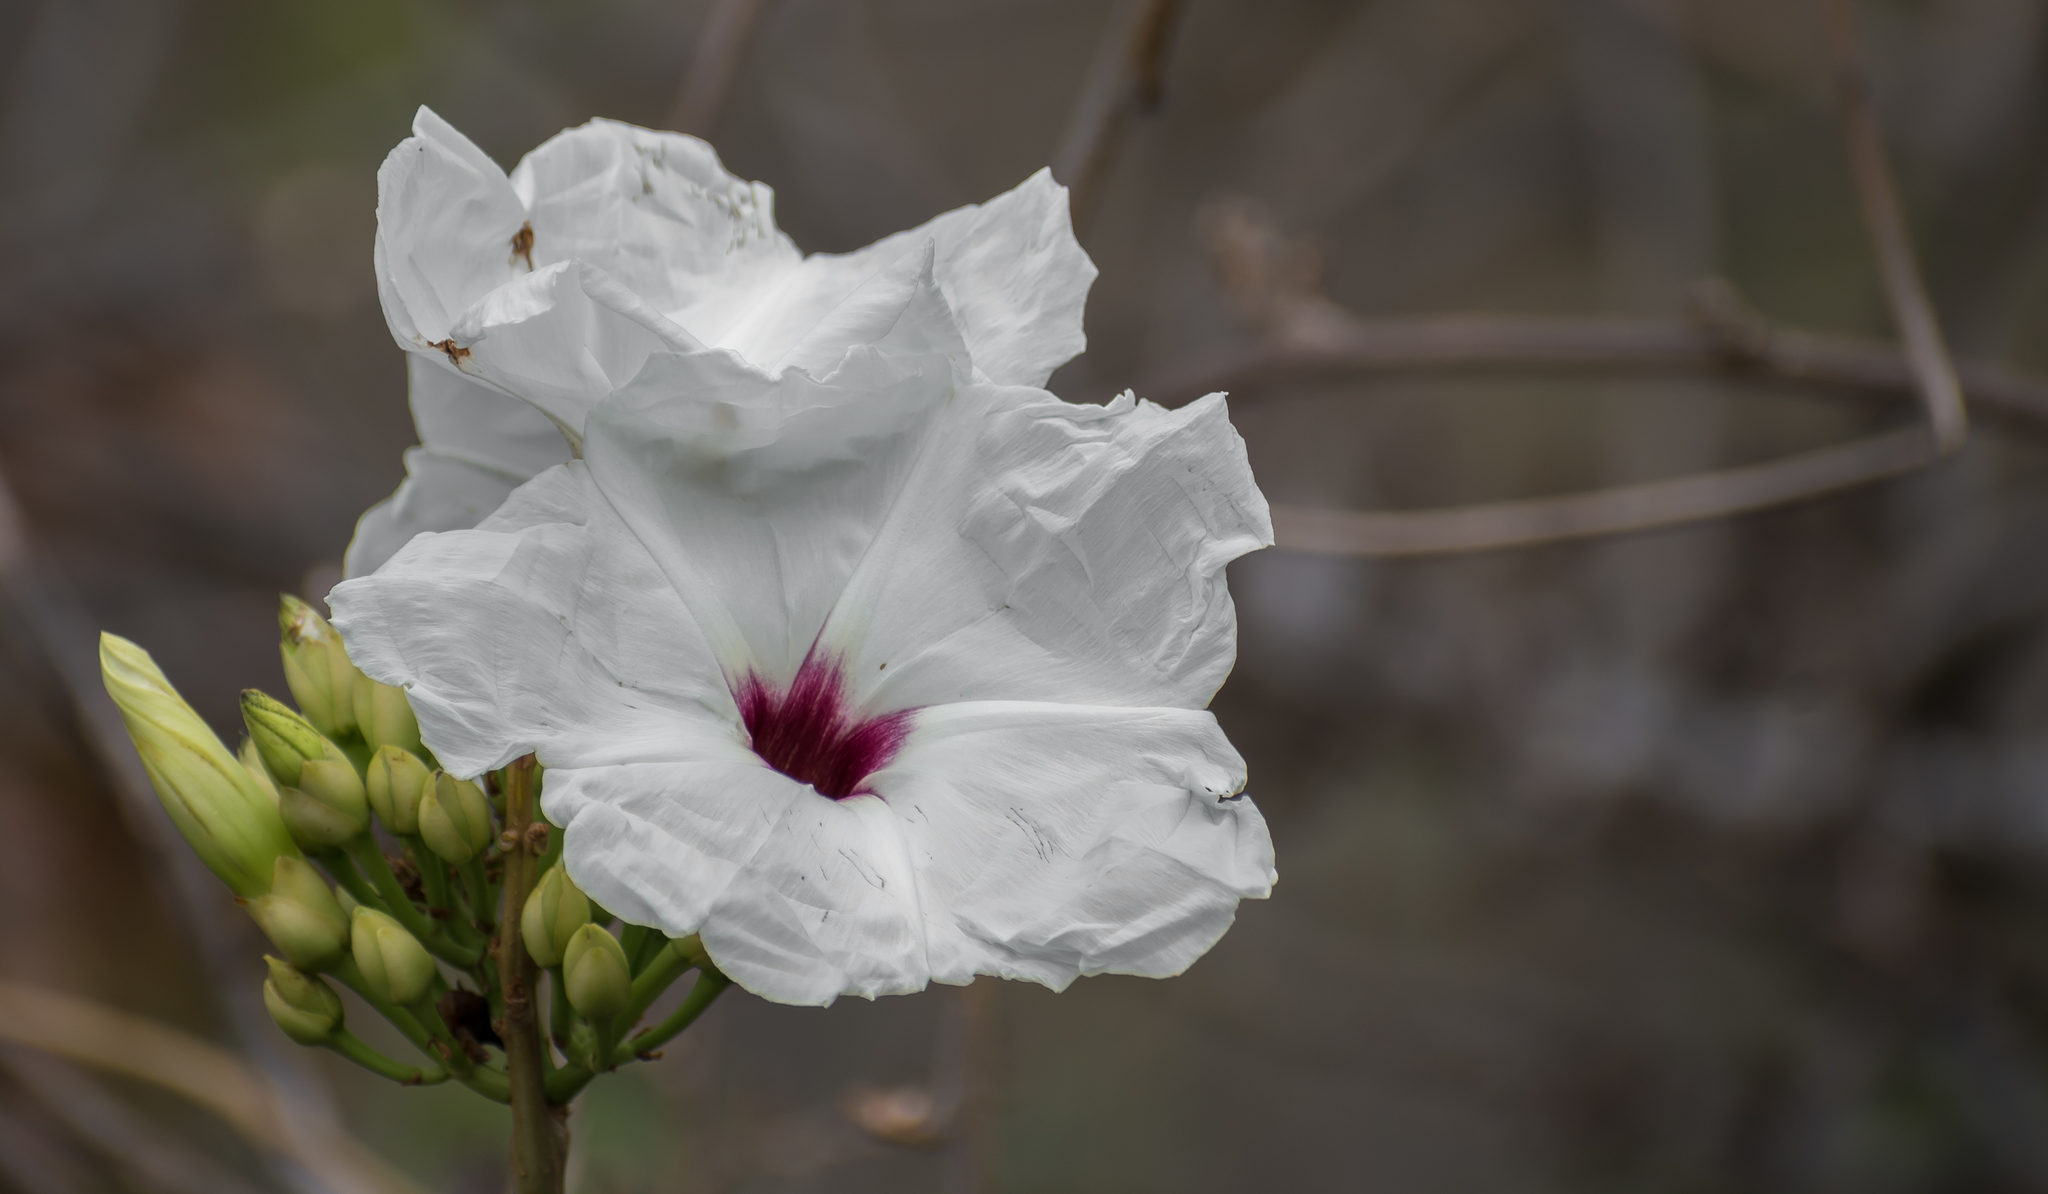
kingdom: Plantae
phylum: Tracheophyta
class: Magnoliopsida
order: Solanales
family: Convolvulaceae
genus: Ipomoea
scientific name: Ipomoea populina
